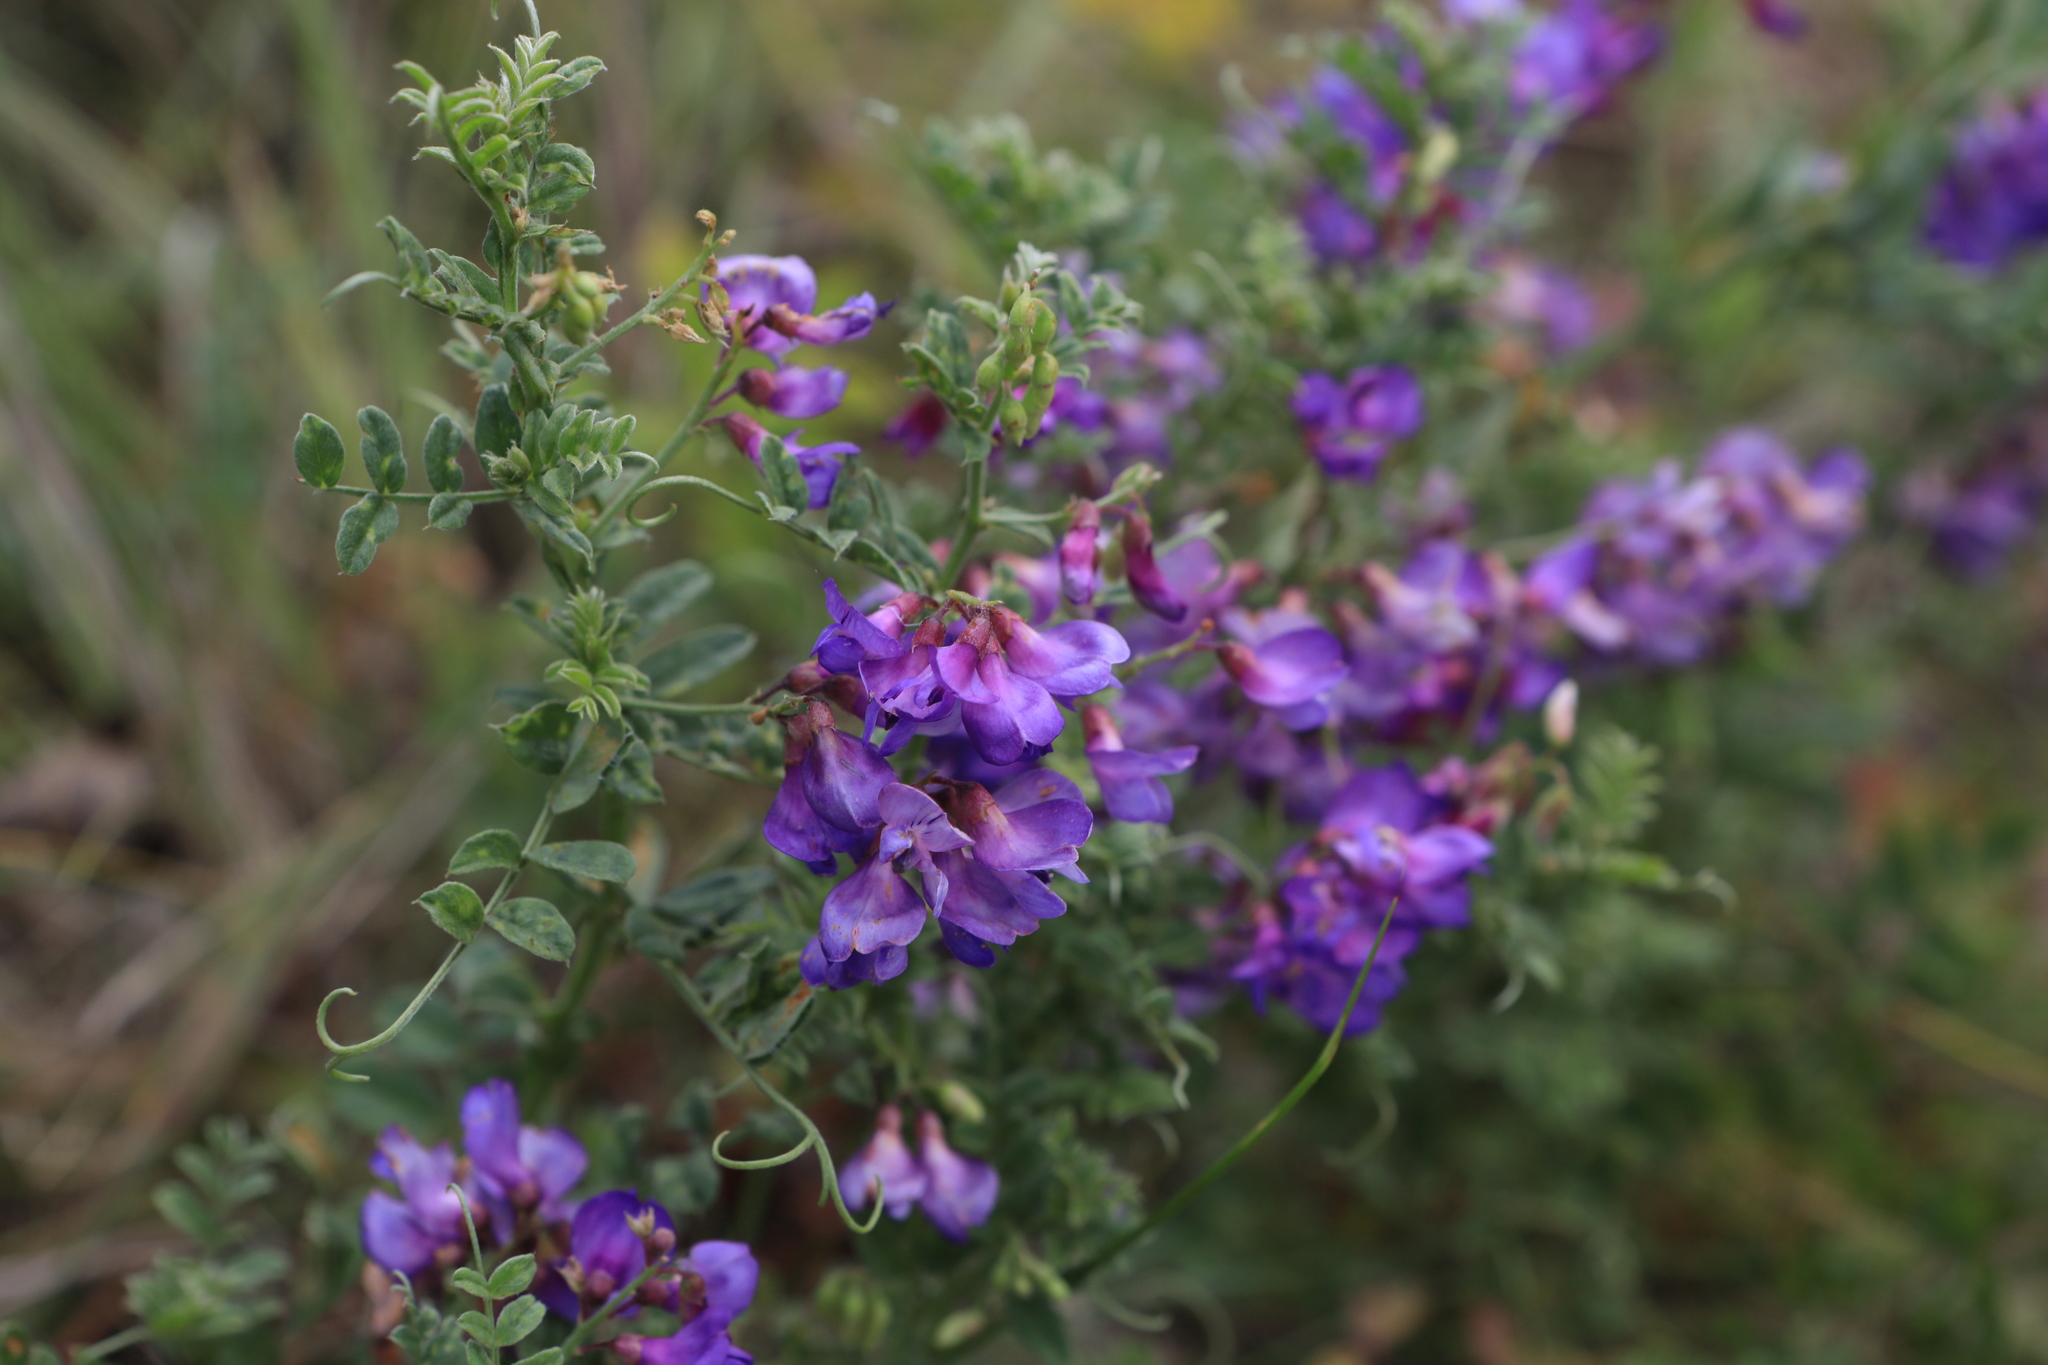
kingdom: Plantae
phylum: Tracheophyta
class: Magnoliopsida
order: Fabales
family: Fabaceae
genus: Vicia
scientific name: Vicia amoena
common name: Cheder ebs
